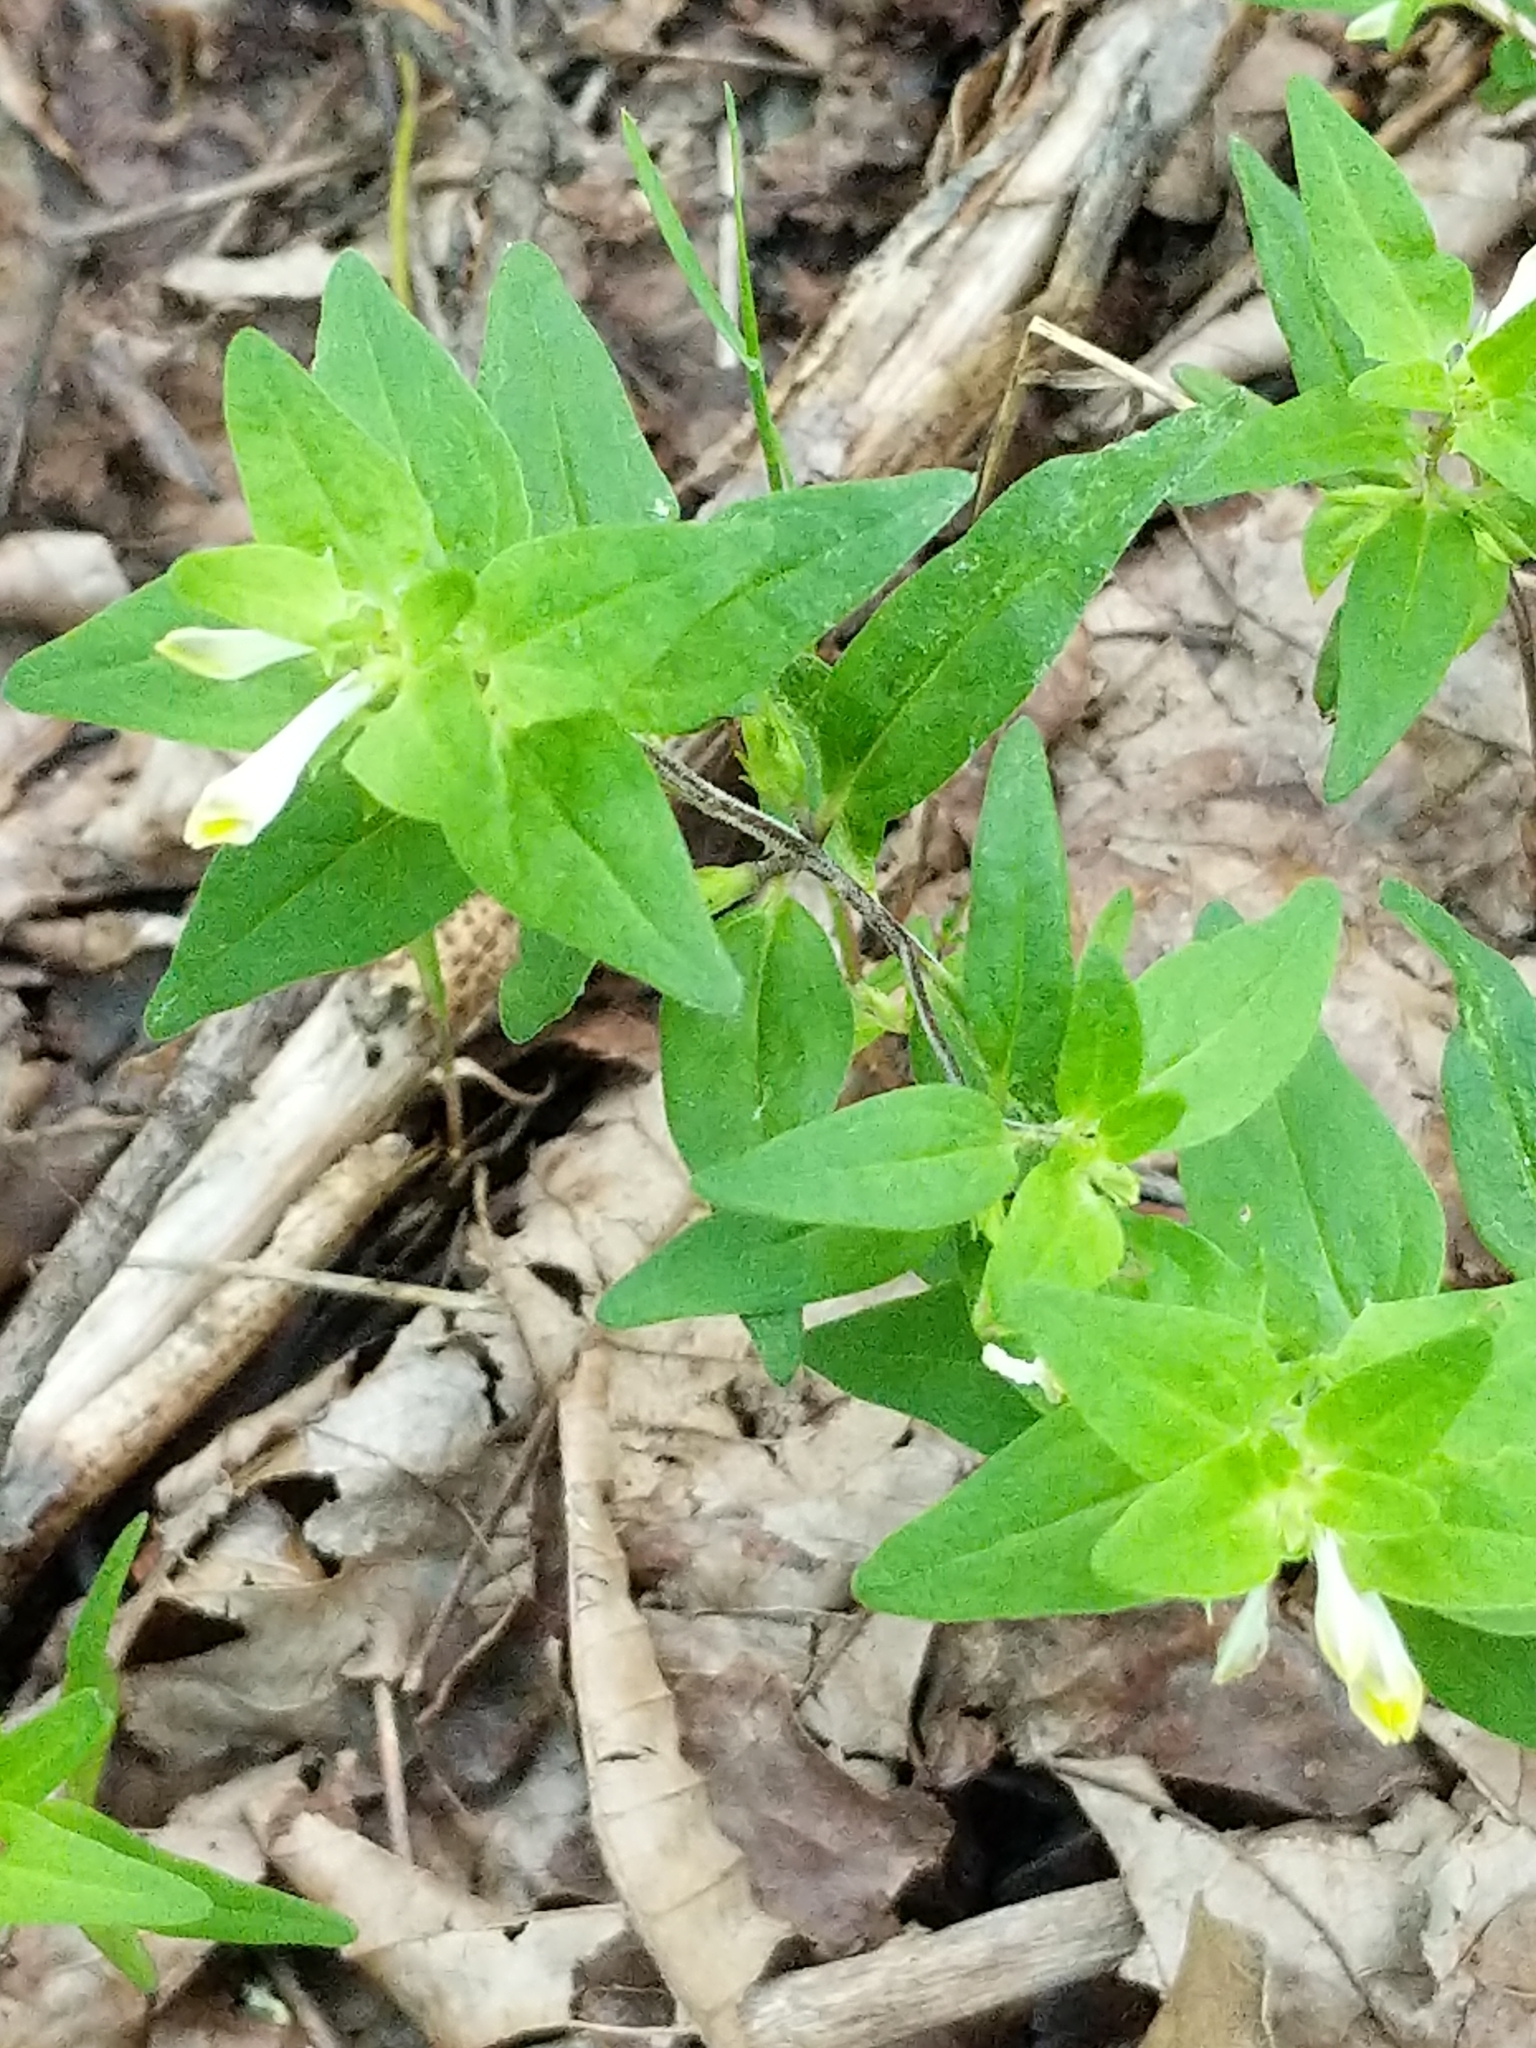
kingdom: Plantae
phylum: Tracheophyta
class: Magnoliopsida
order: Lamiales
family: Orobanchaceae
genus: Melampyrum
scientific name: Melampyrum lineare
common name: American cow-wheat
